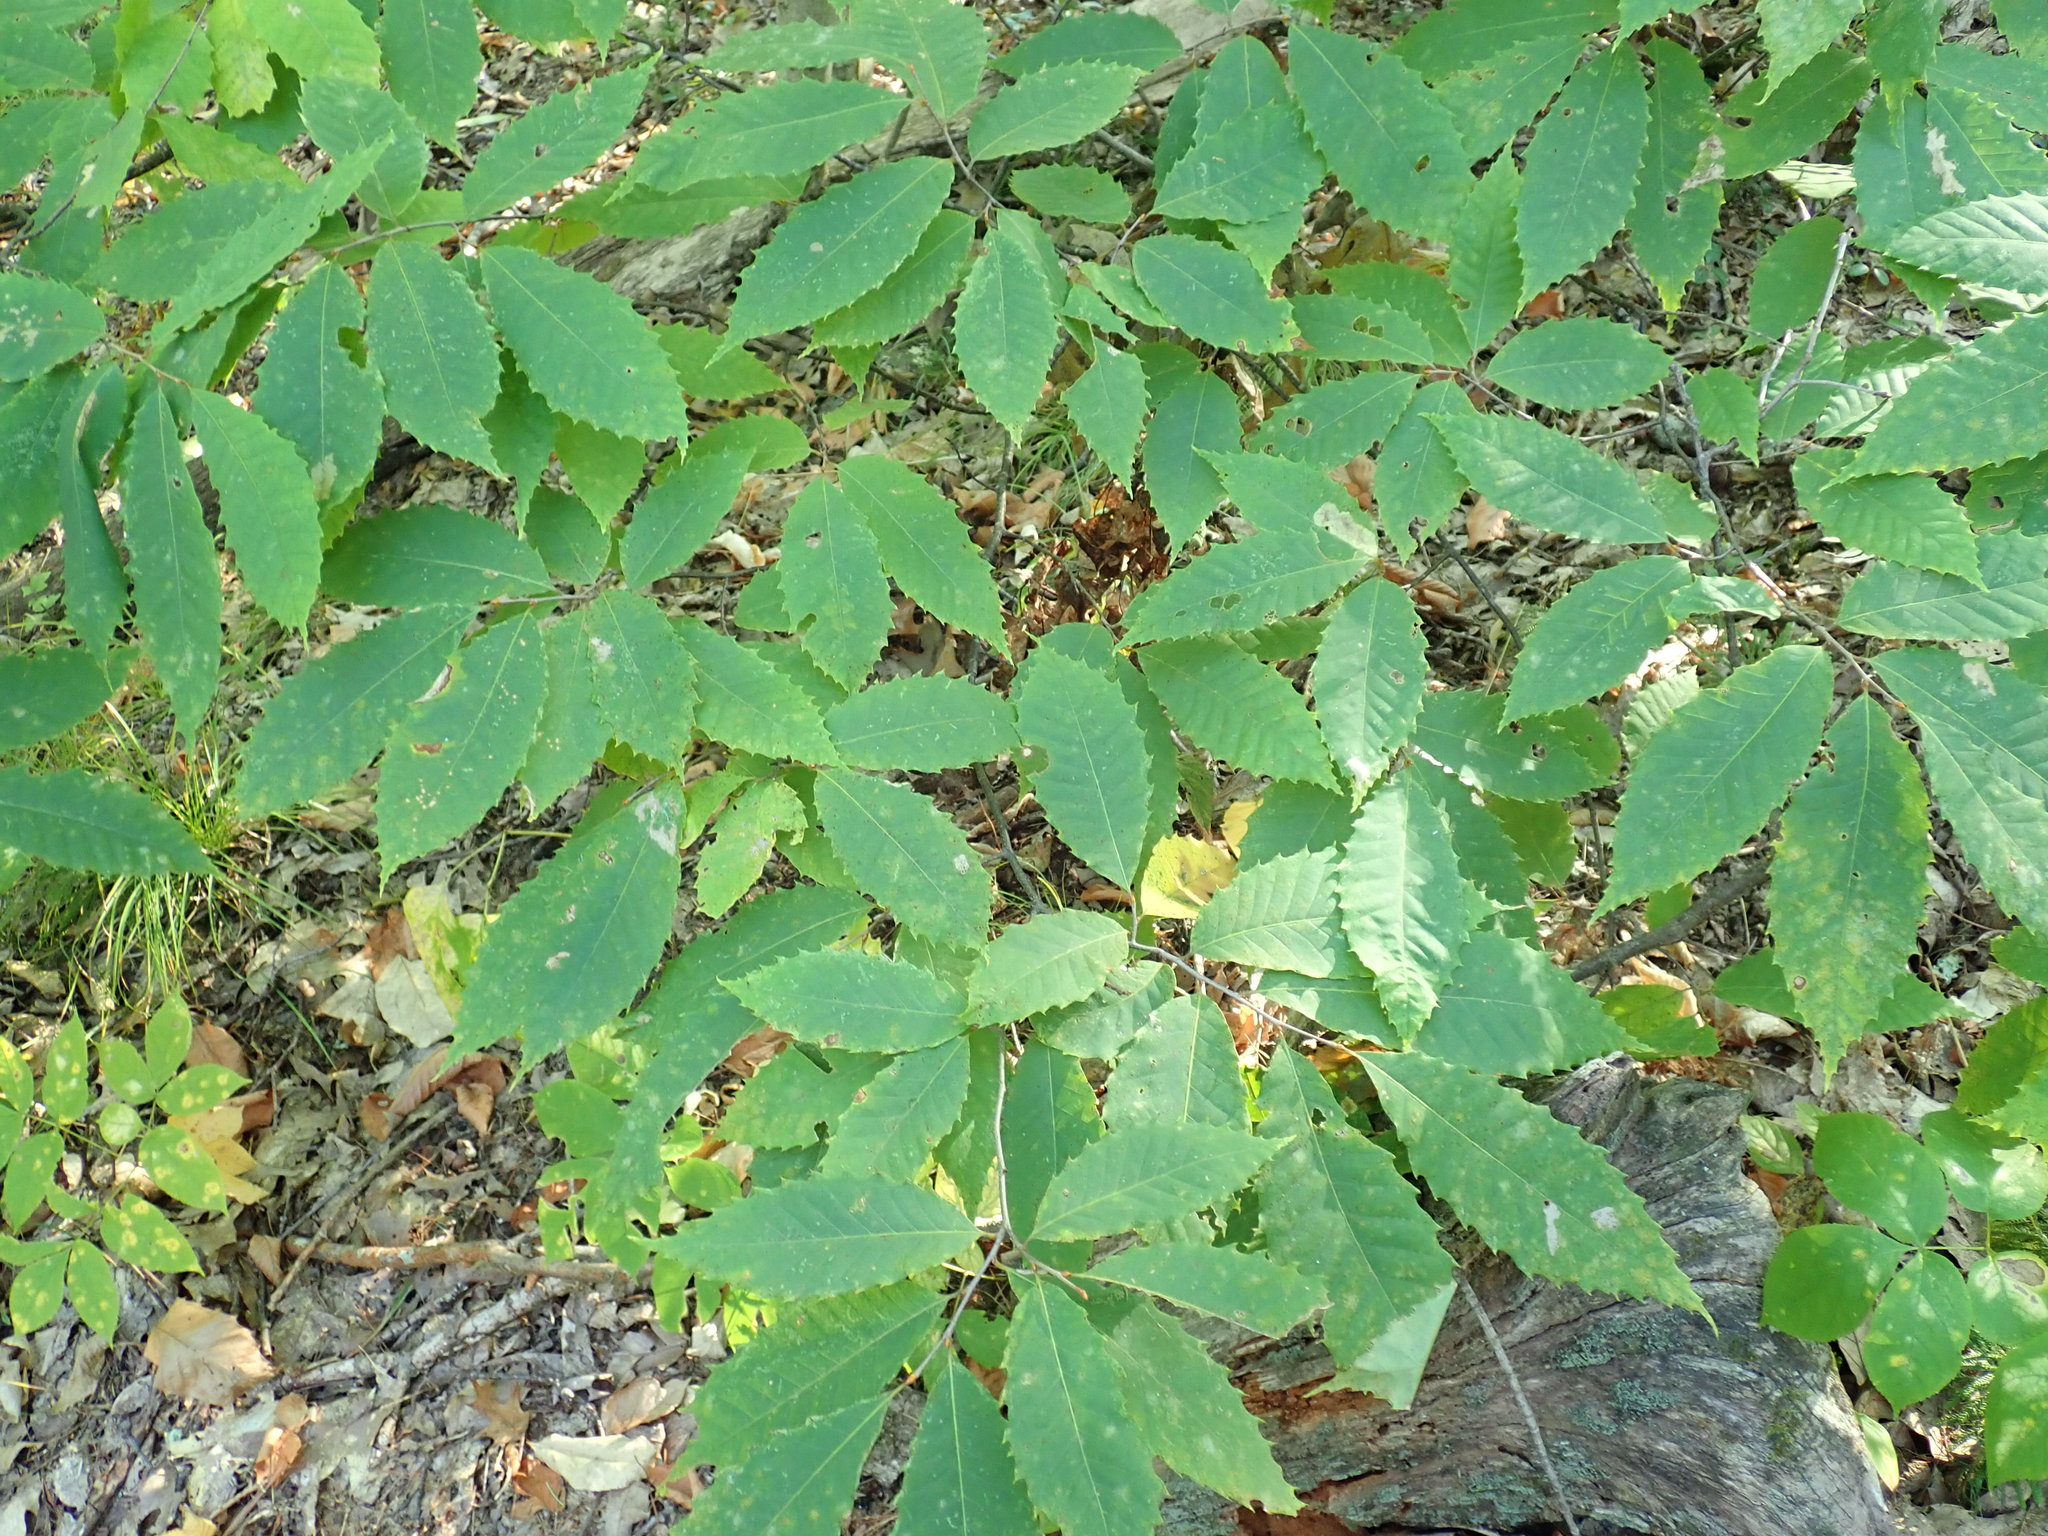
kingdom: Plantae
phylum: Tracheophyta
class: Magnoliopsida
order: Fagales
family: Fagaceae
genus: Castanea
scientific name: Castanea dentata
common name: American chestnut
